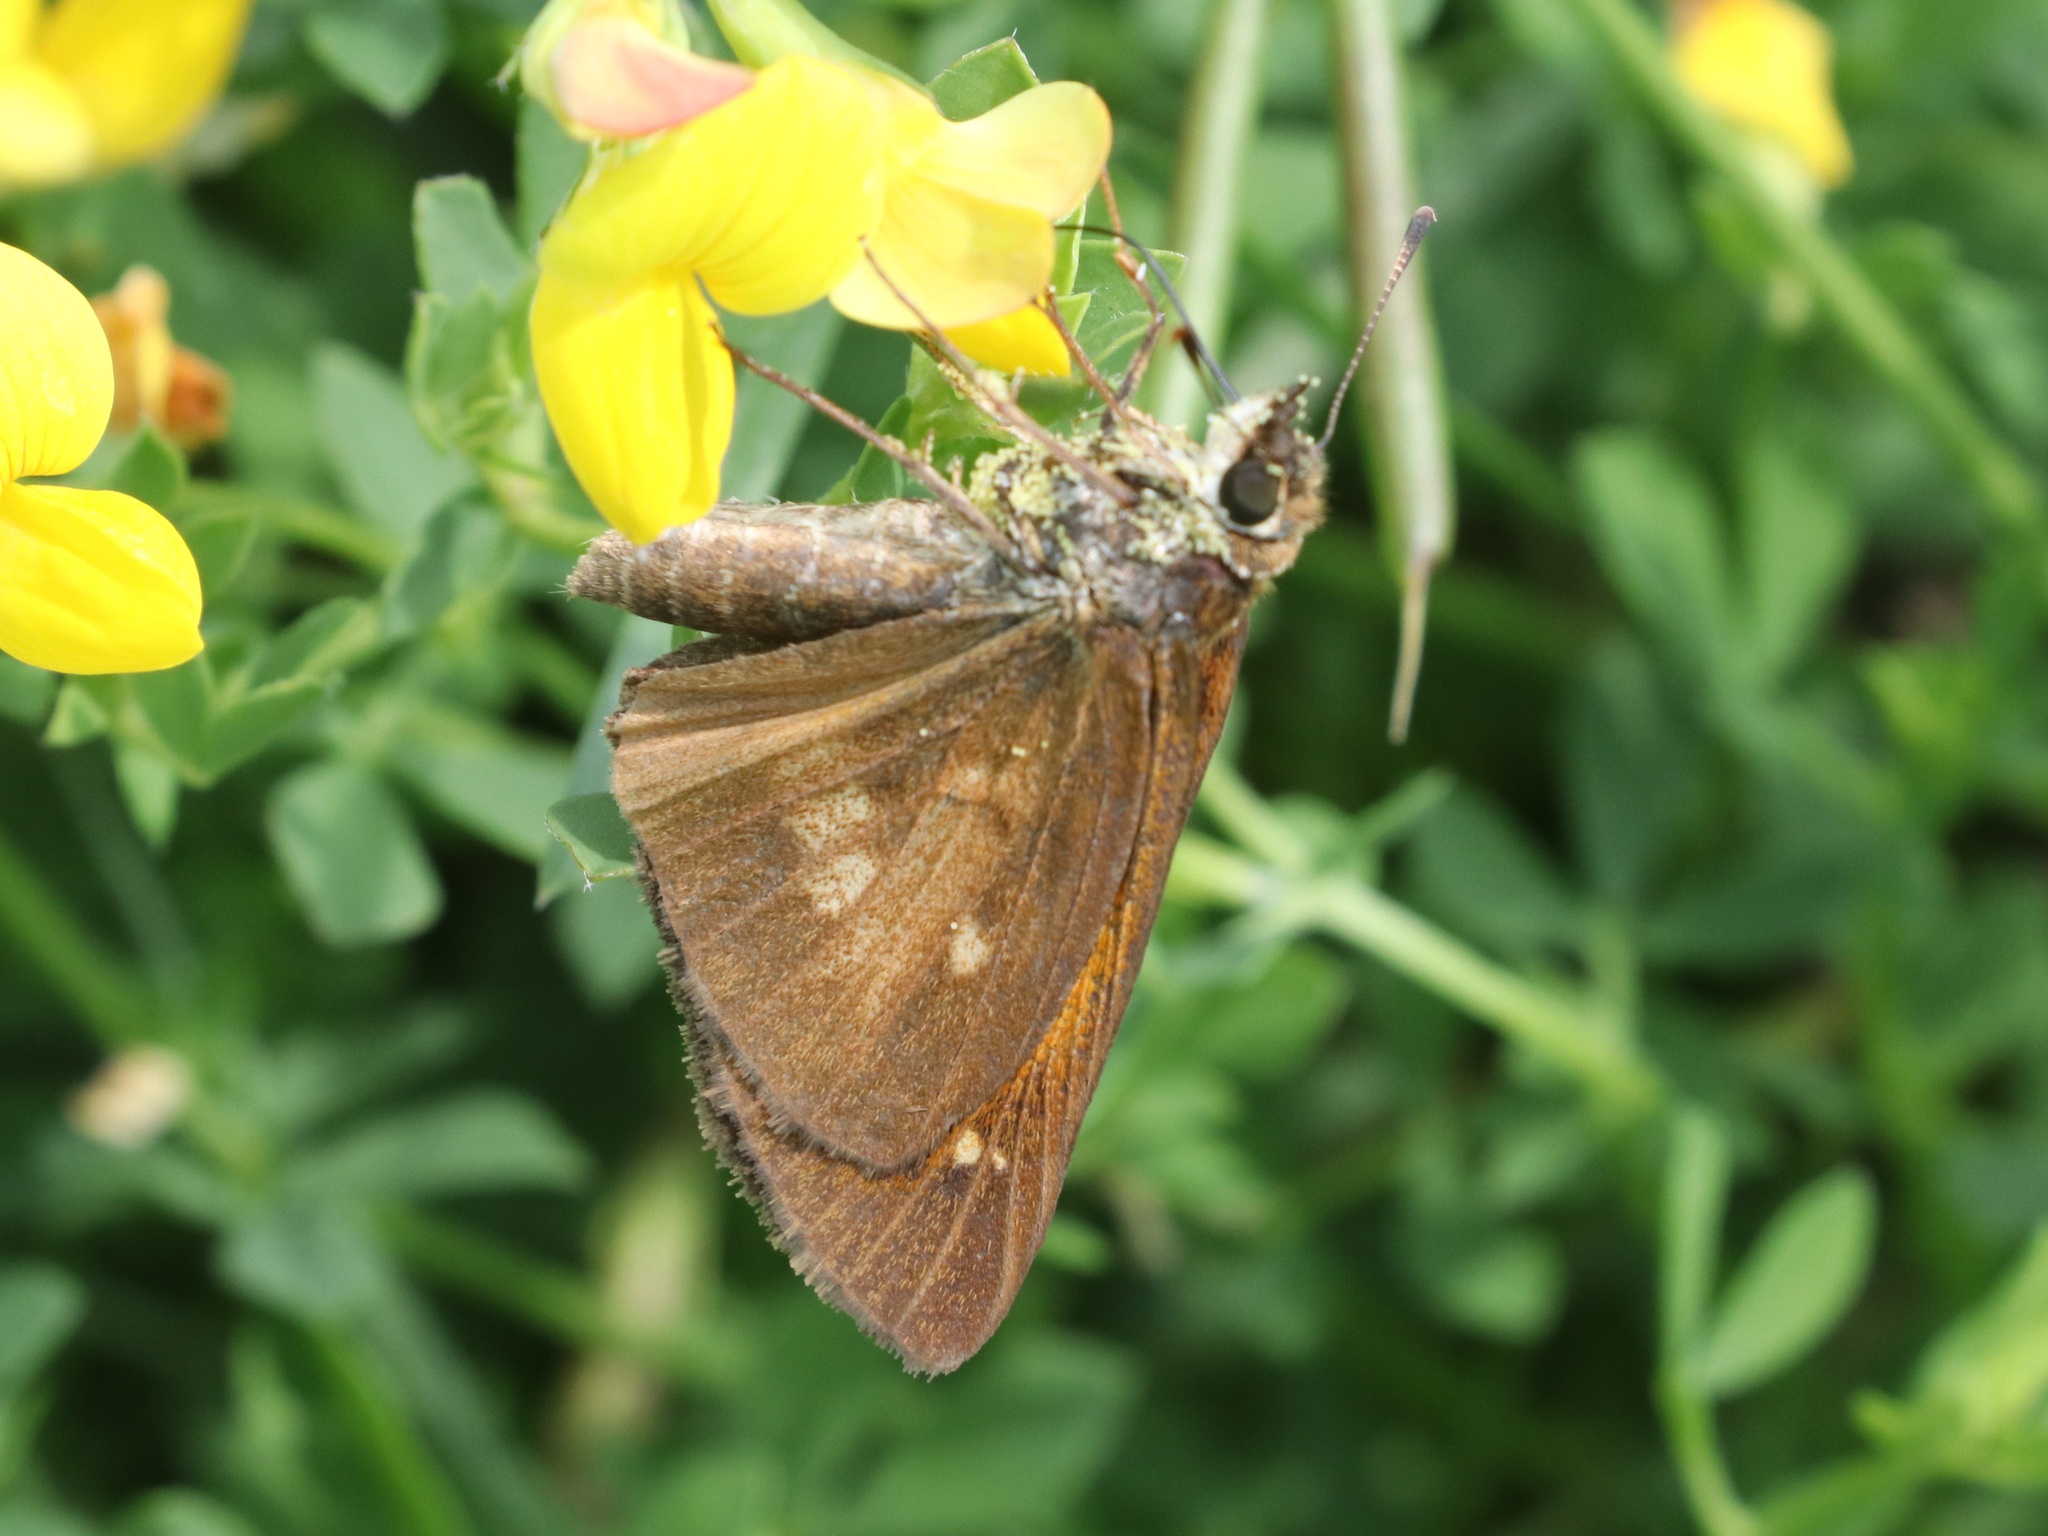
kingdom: Animalia
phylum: Arthropoda
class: Insecta
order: Lepidoptera
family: Hesperiidae
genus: Poanes
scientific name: Poanes viator
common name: Broad-winged skipper
